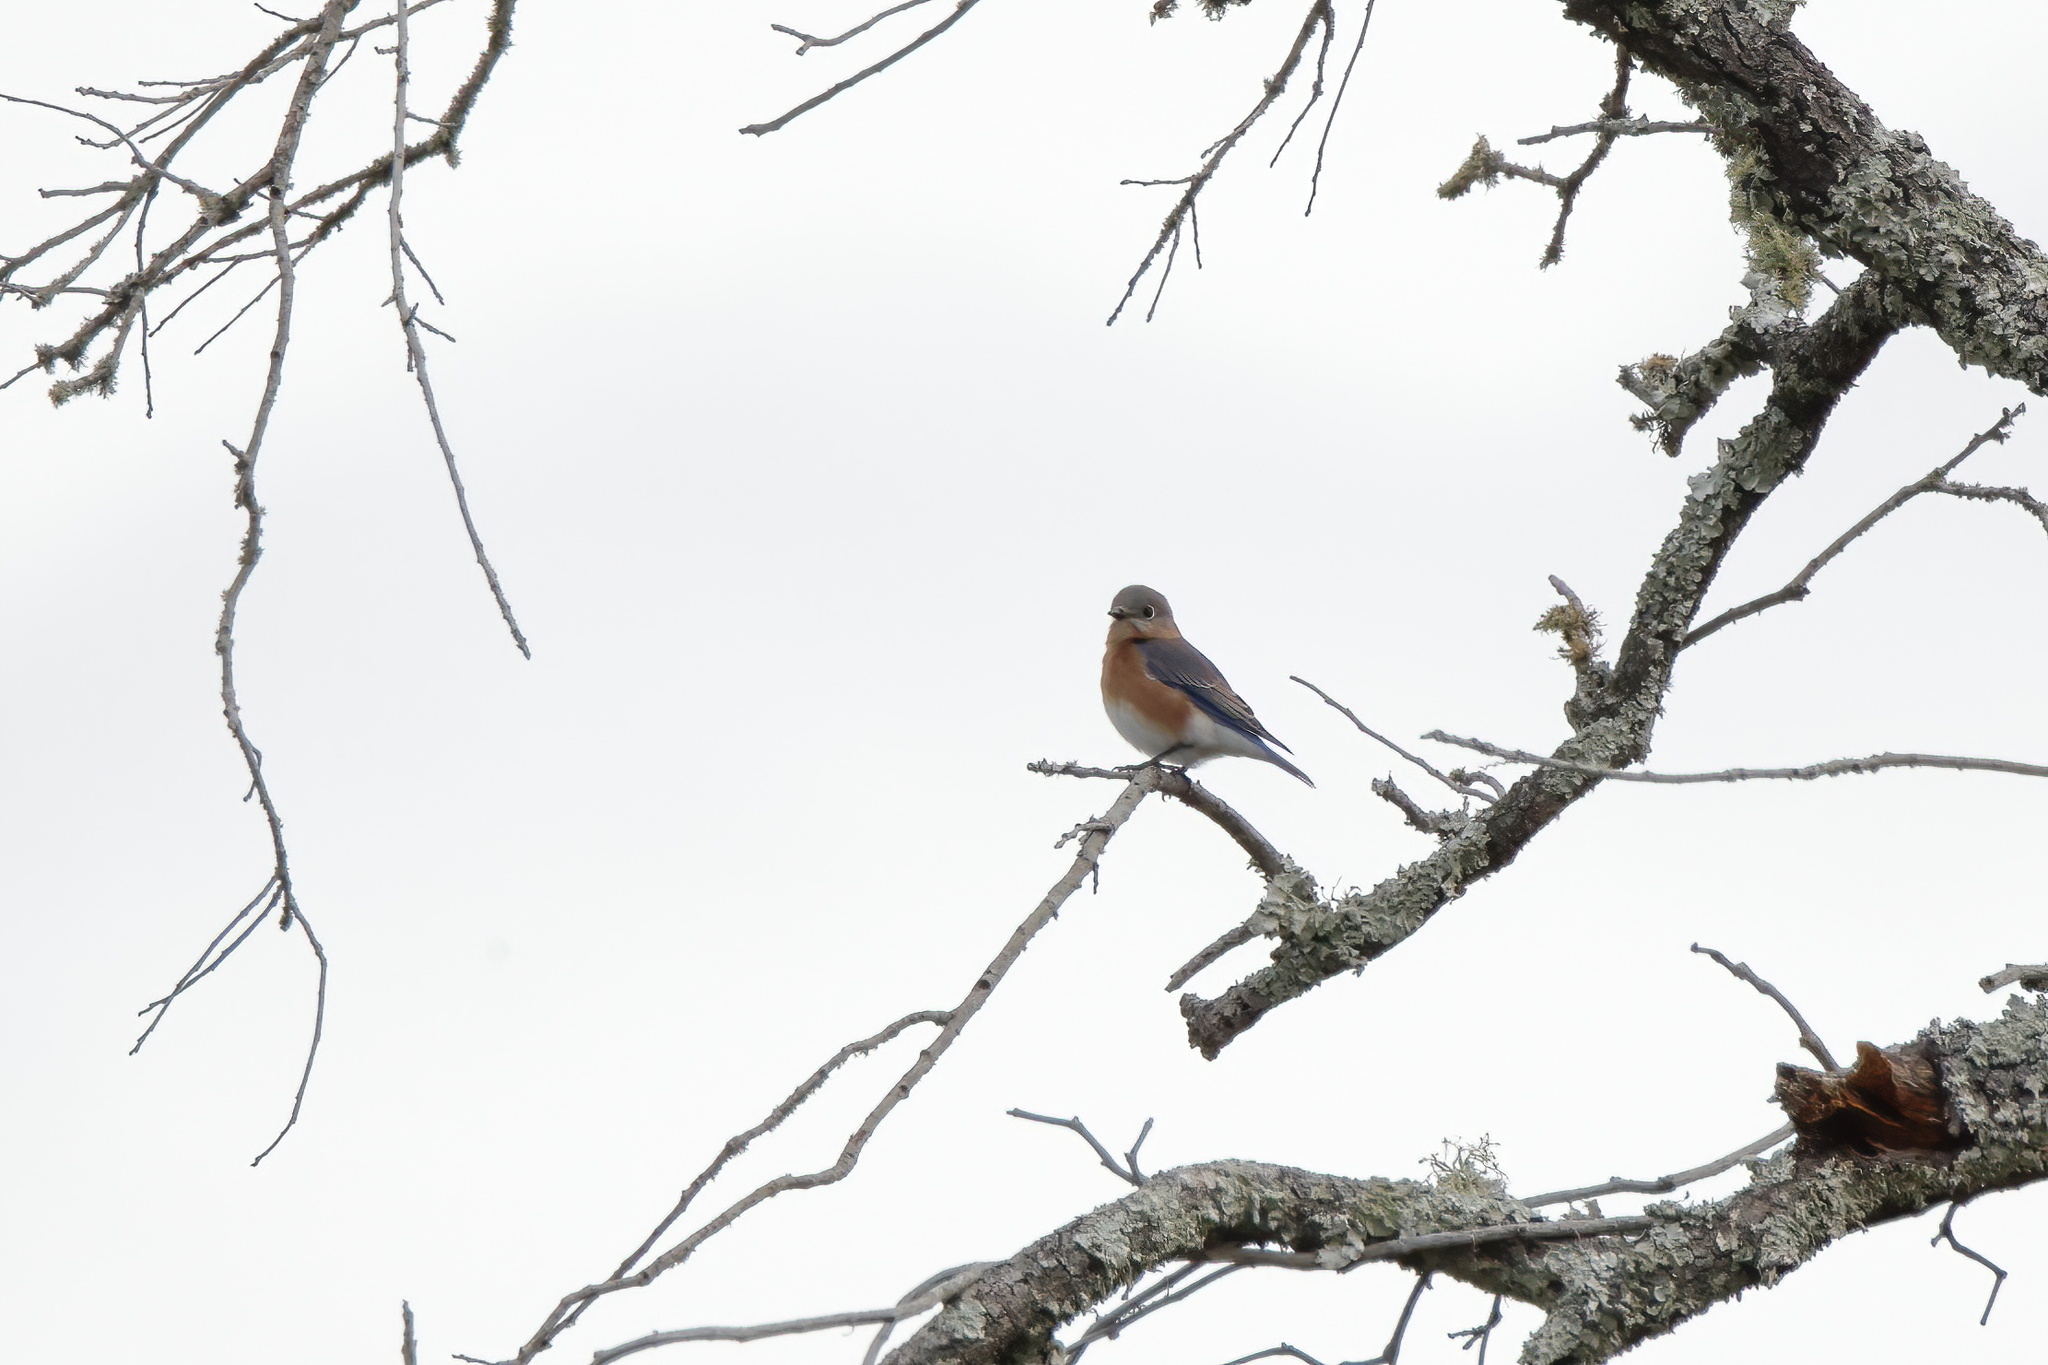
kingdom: Animalia
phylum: Chordata
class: Aves
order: Passeriformes
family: Turdidae
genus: Sialia
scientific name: Sialia sialis
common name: Eastern bluebird
